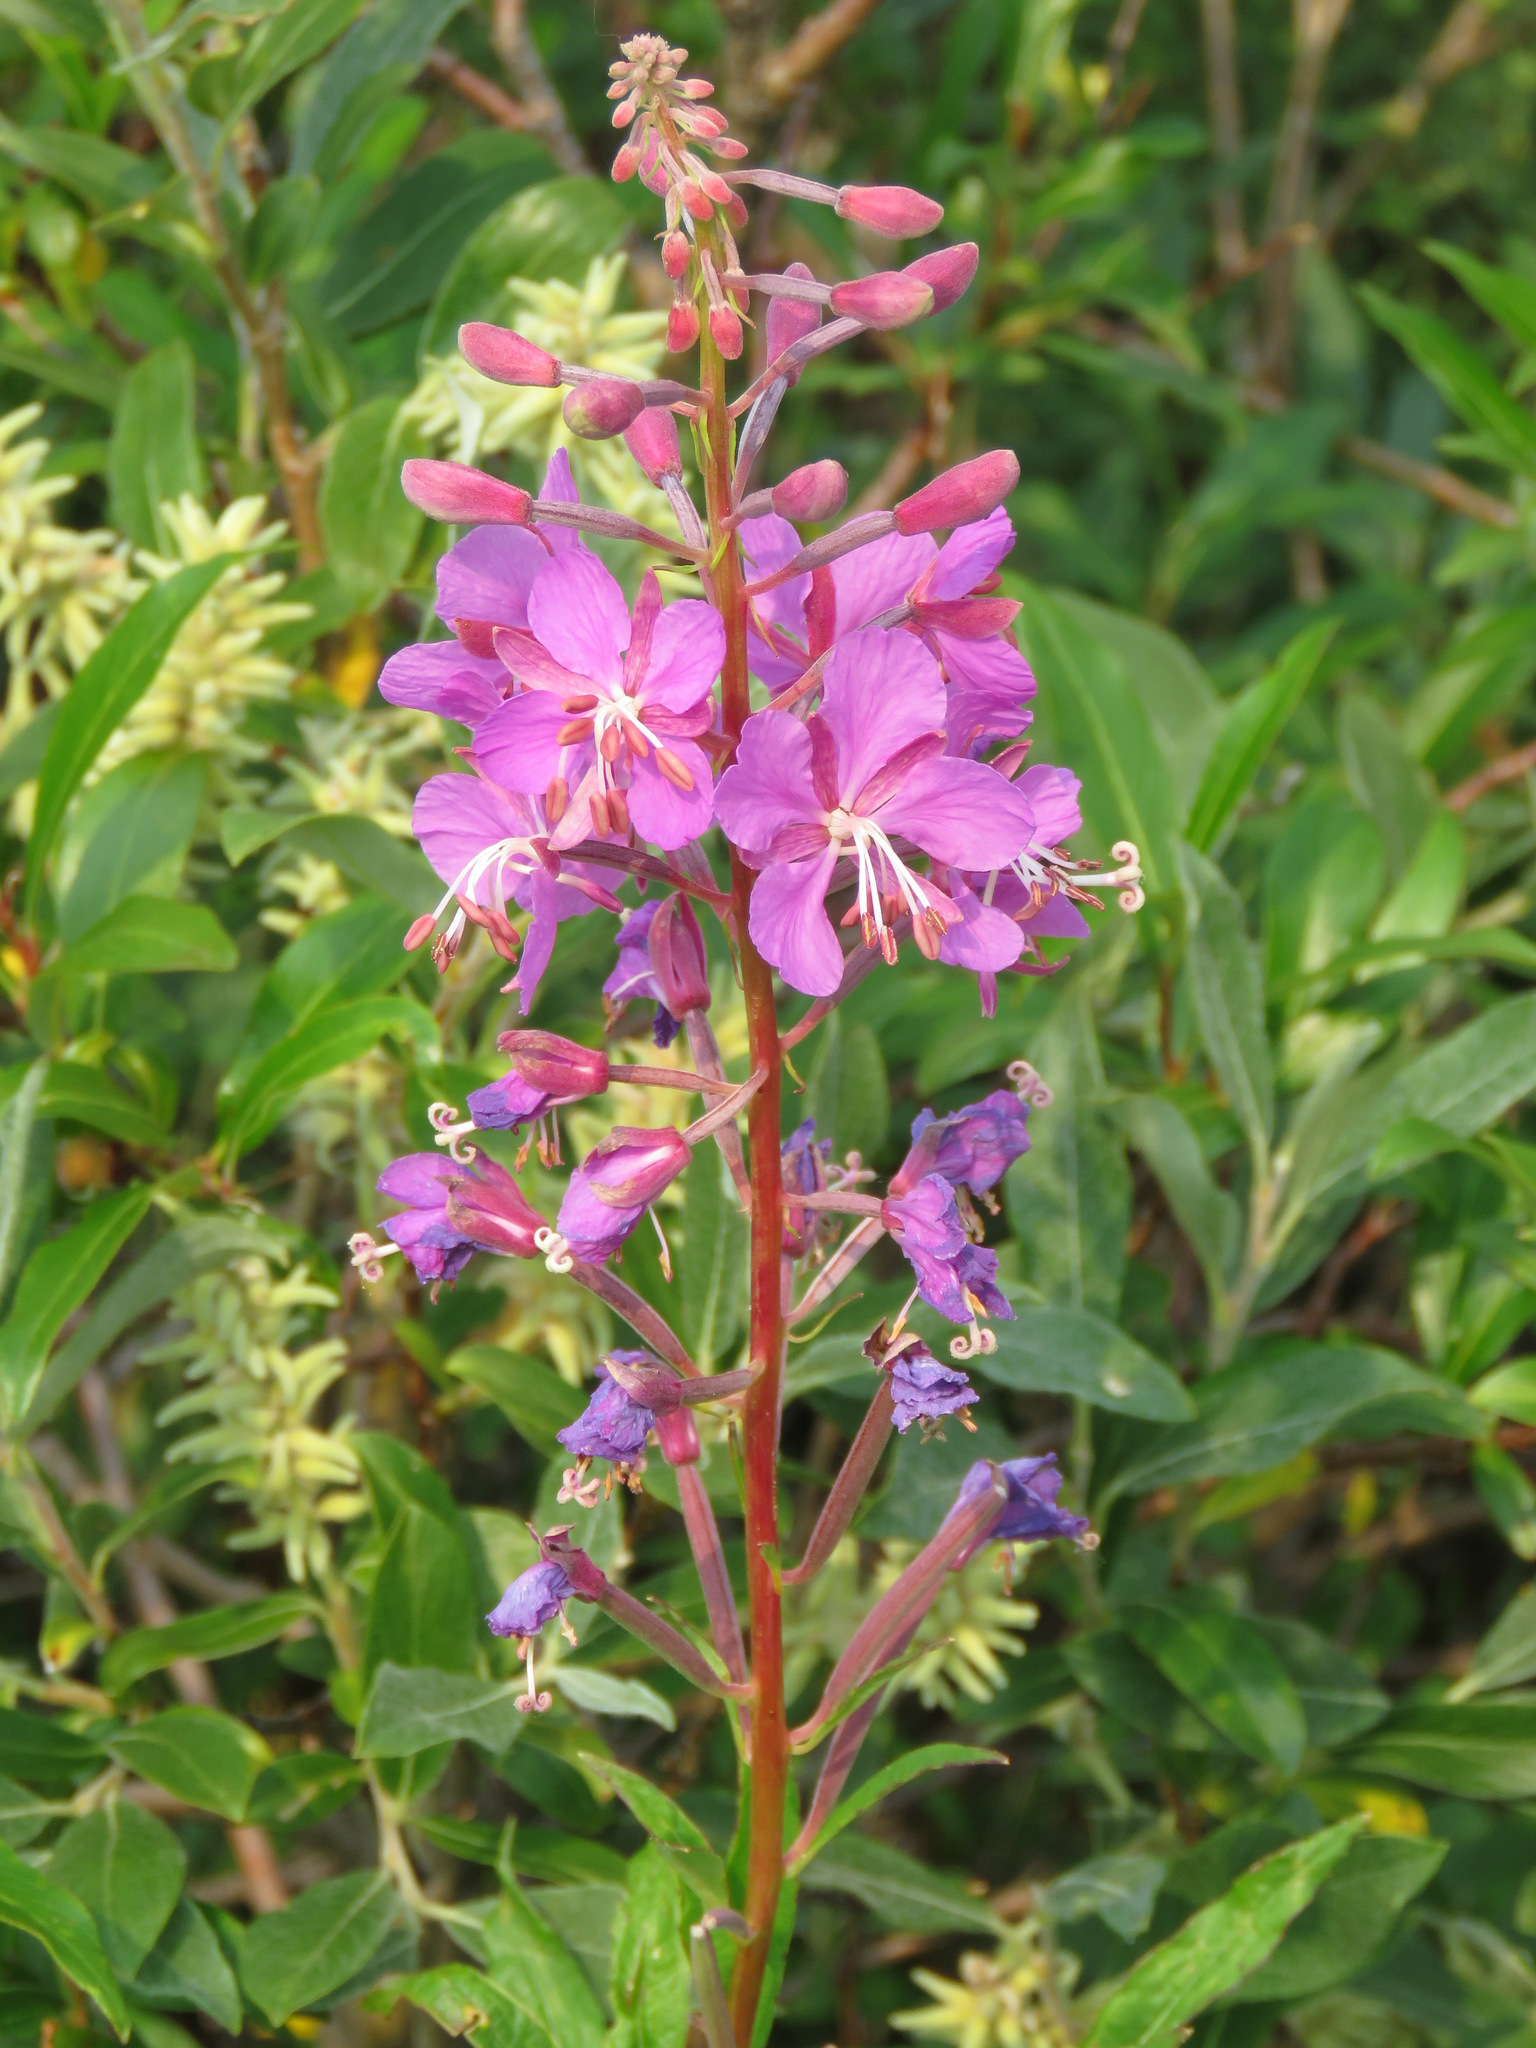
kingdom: Plantae
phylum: Tracheophyta
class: Magnoliopsida
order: Myrtales
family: Onagraceae
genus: Chamaenerion
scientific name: Chamaenerion angustifolium
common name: Fireweed
